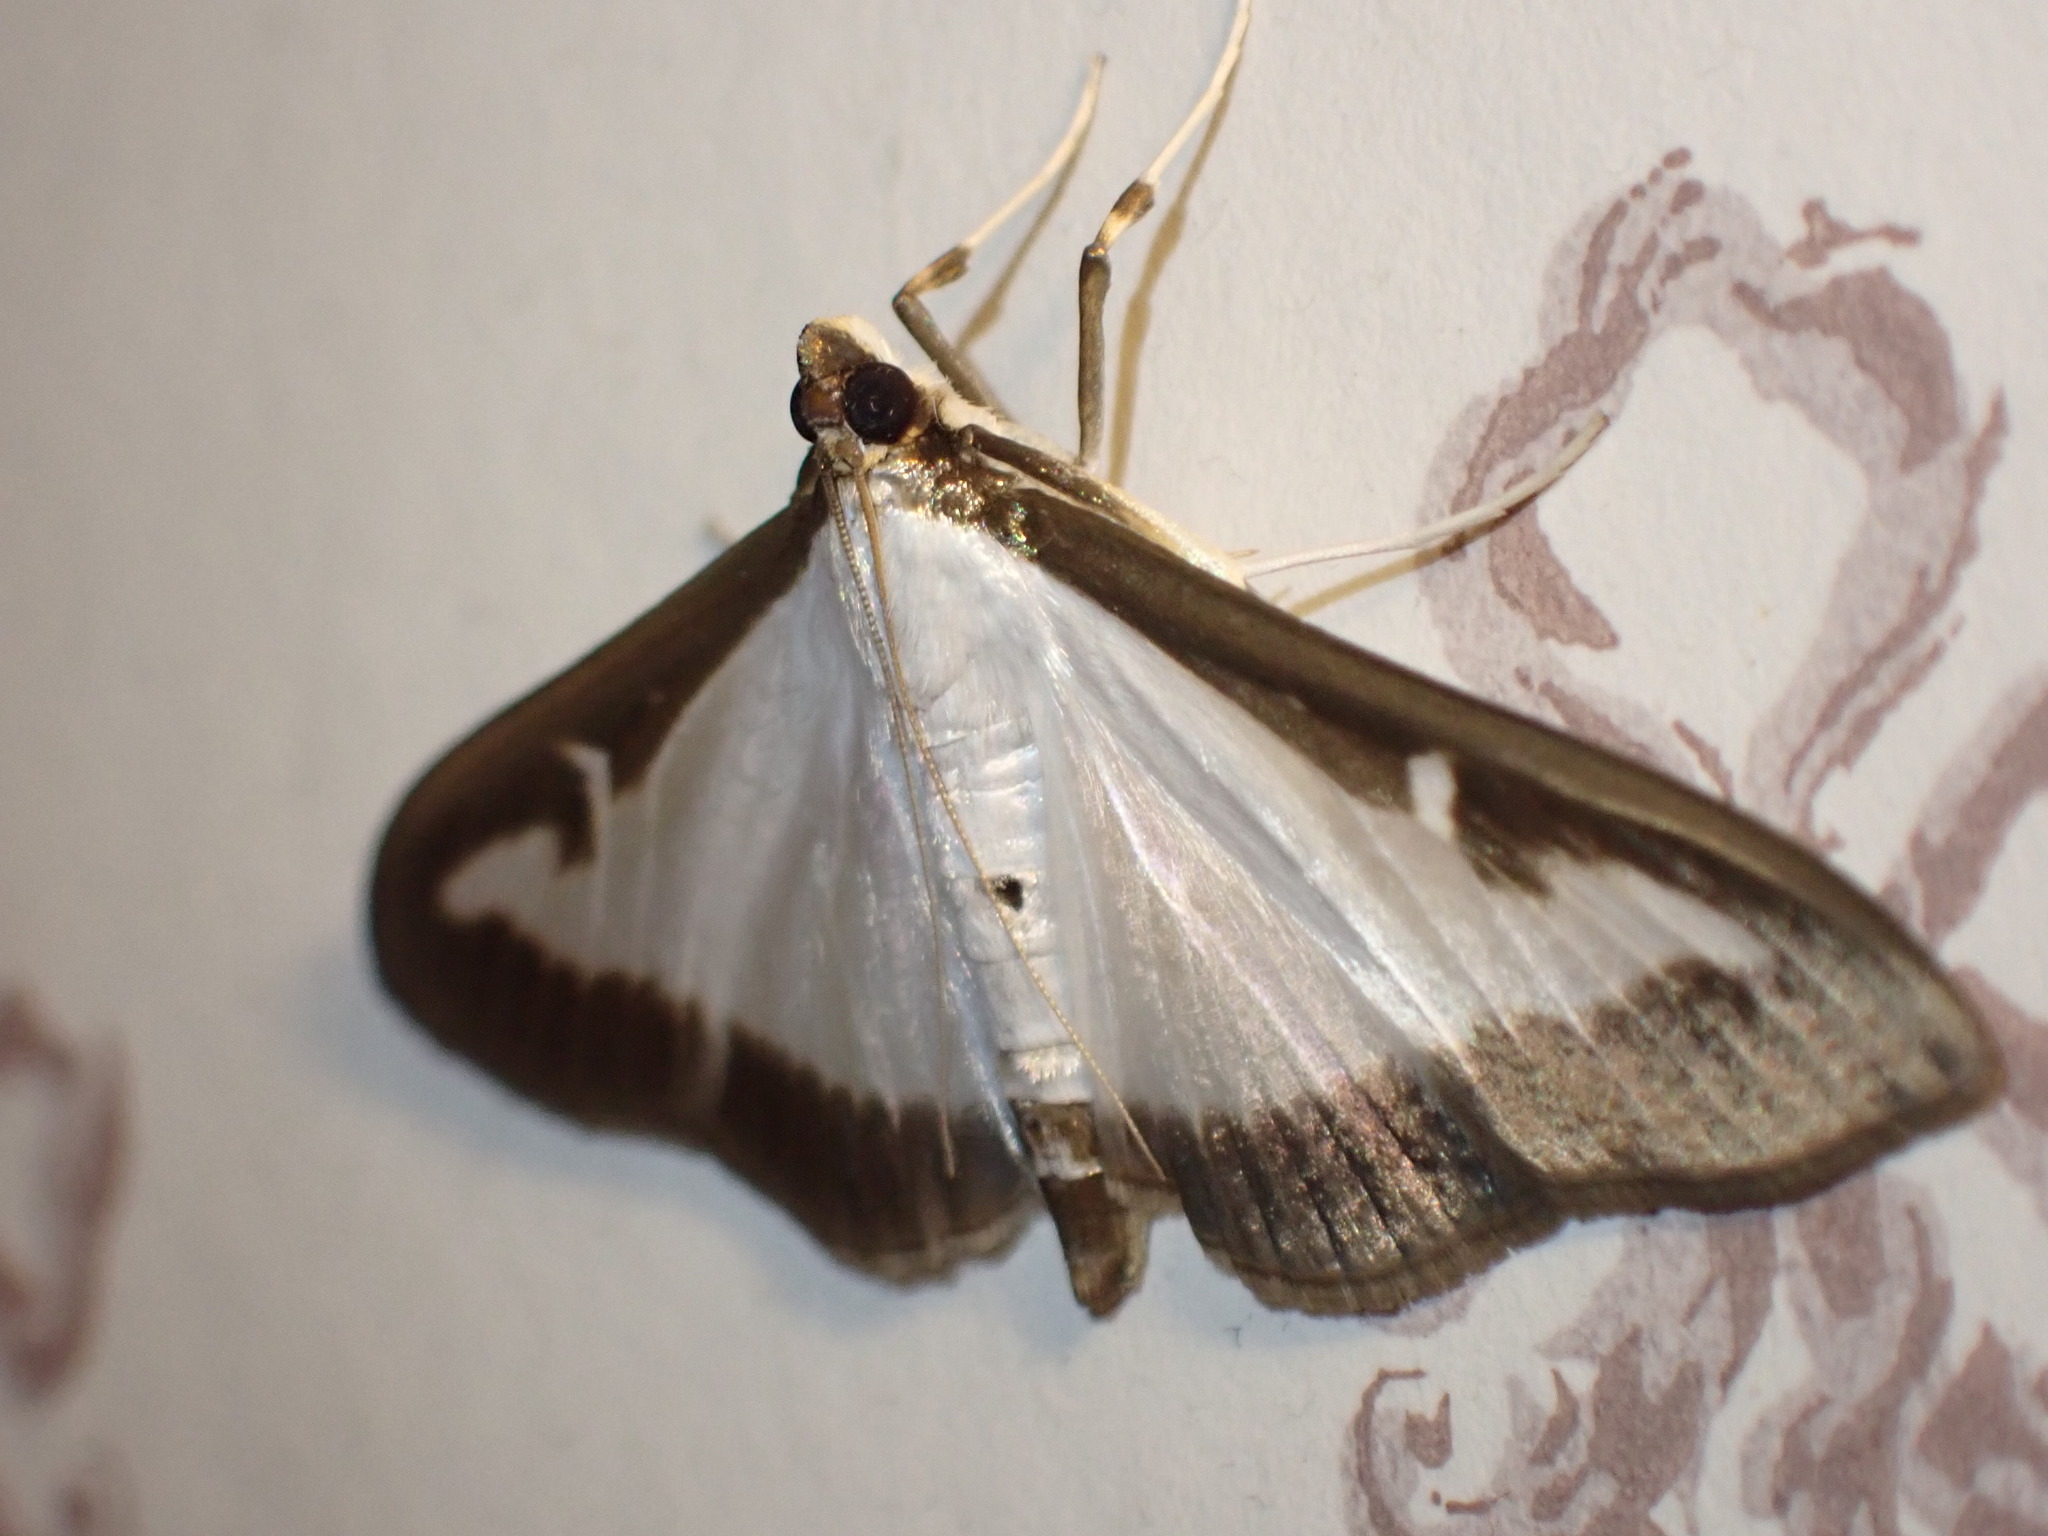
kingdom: Animalia
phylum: Arthropoda
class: Insecta
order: Lepidoptera
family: Crambidae
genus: Cydalima
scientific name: Cydalima perspectalis
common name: Box tree moth
